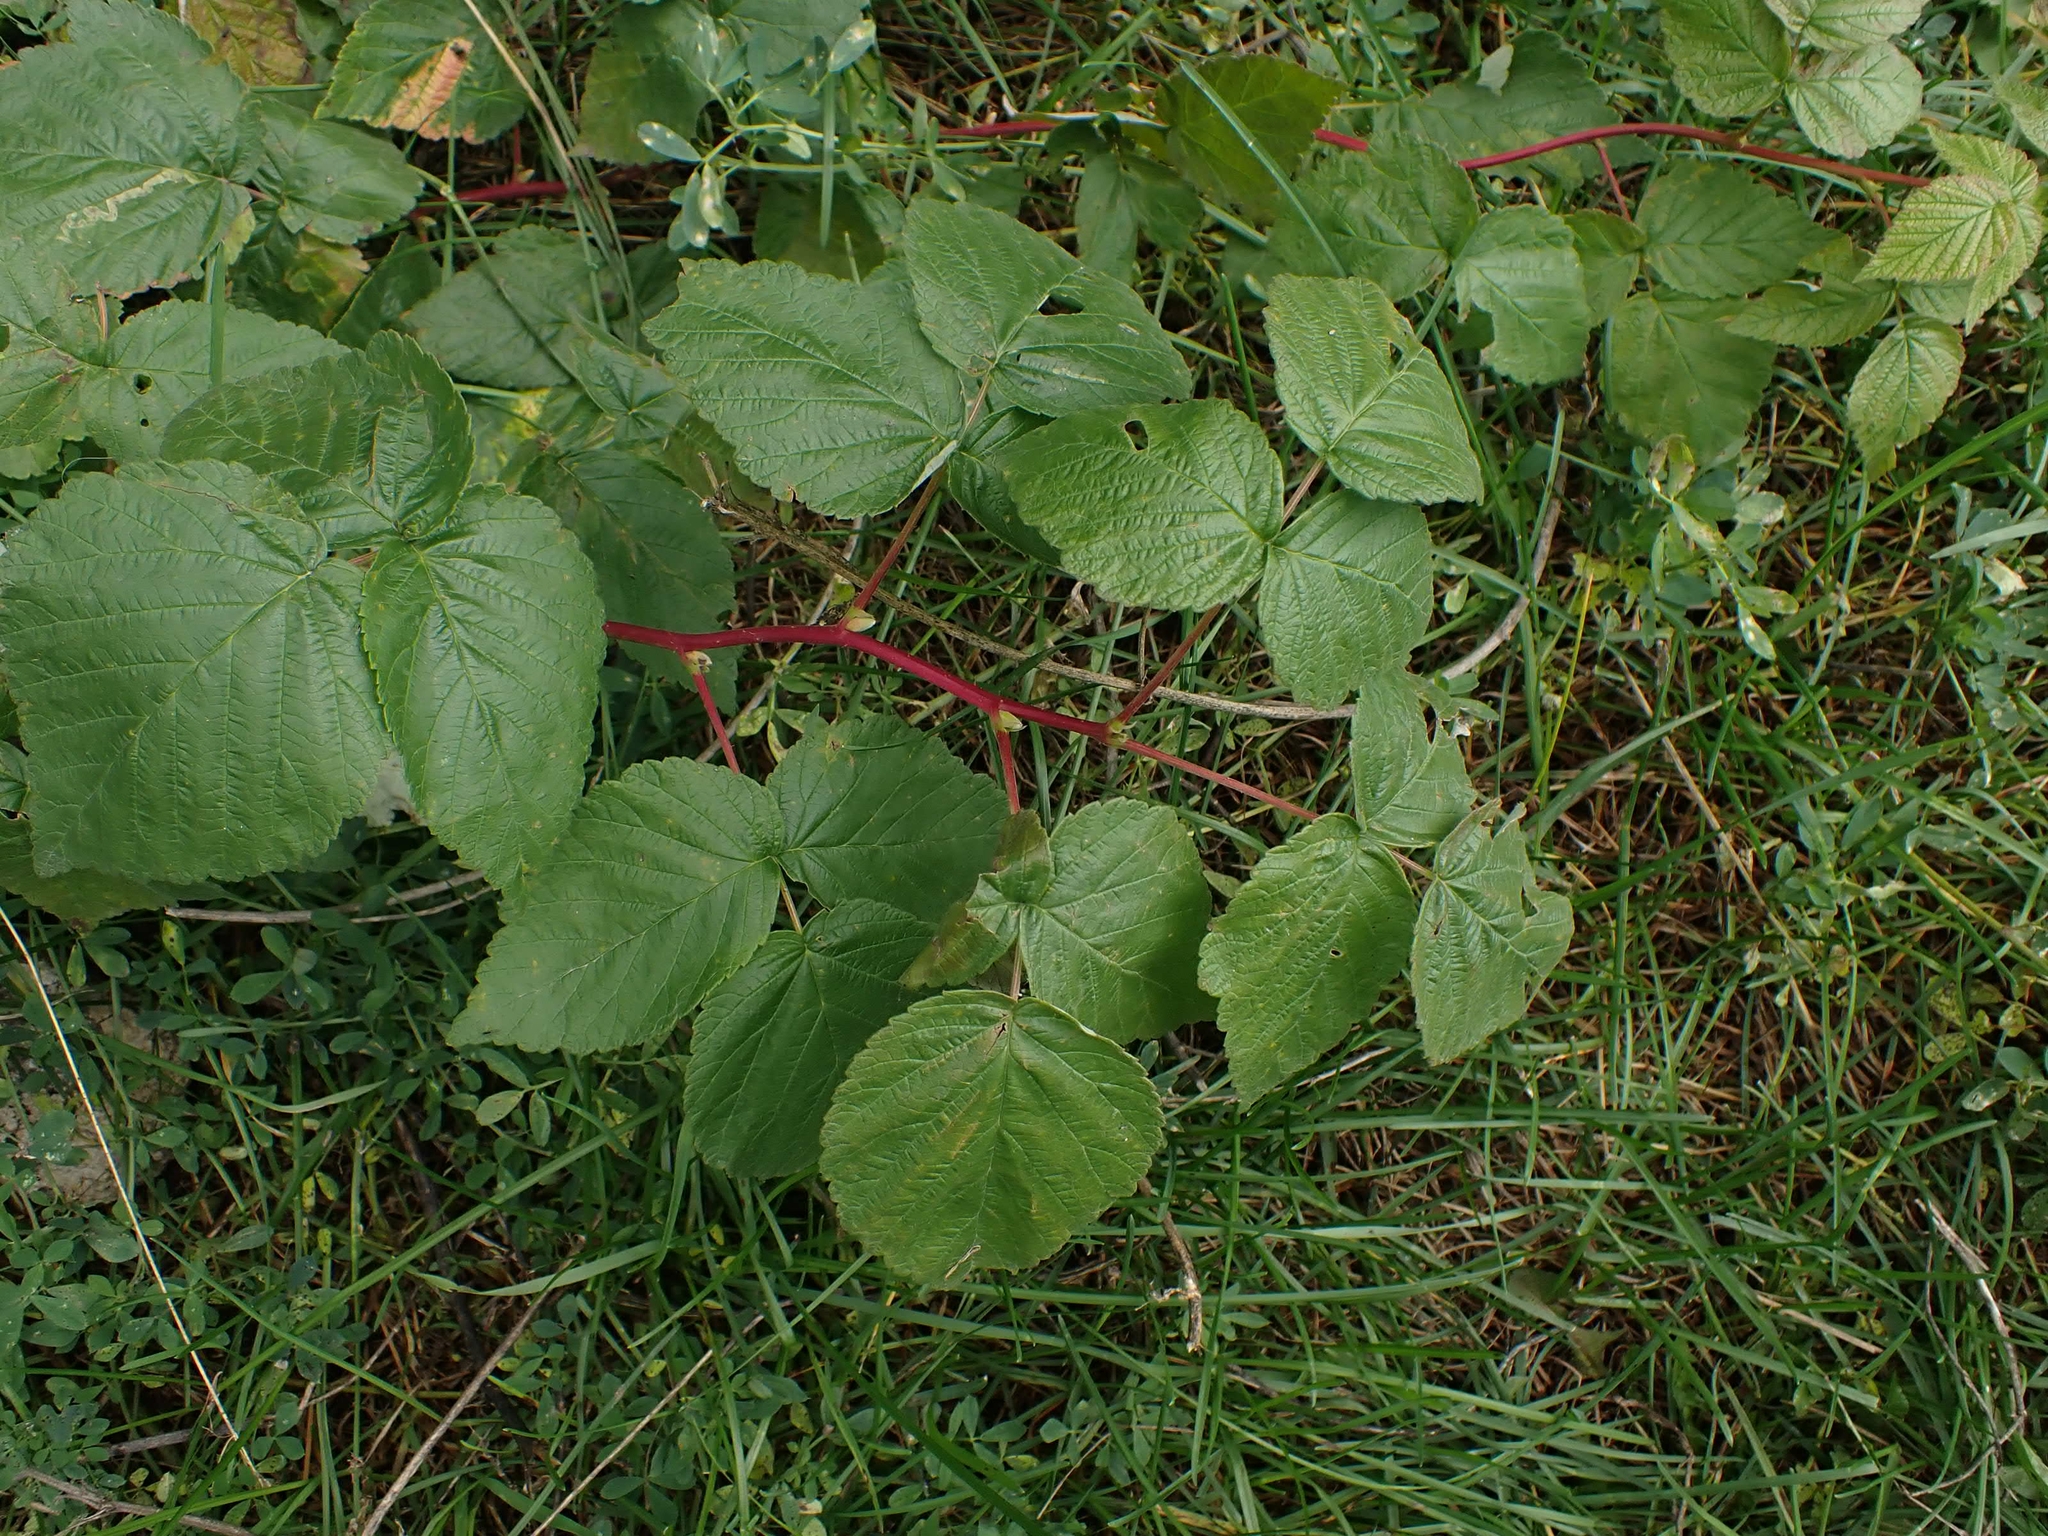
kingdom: Plantae
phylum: Tracheophyta
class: Magnoliopsida
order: Rosales
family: Rosaceae
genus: Rubus
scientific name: Rubus idaeus
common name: Raspberry
